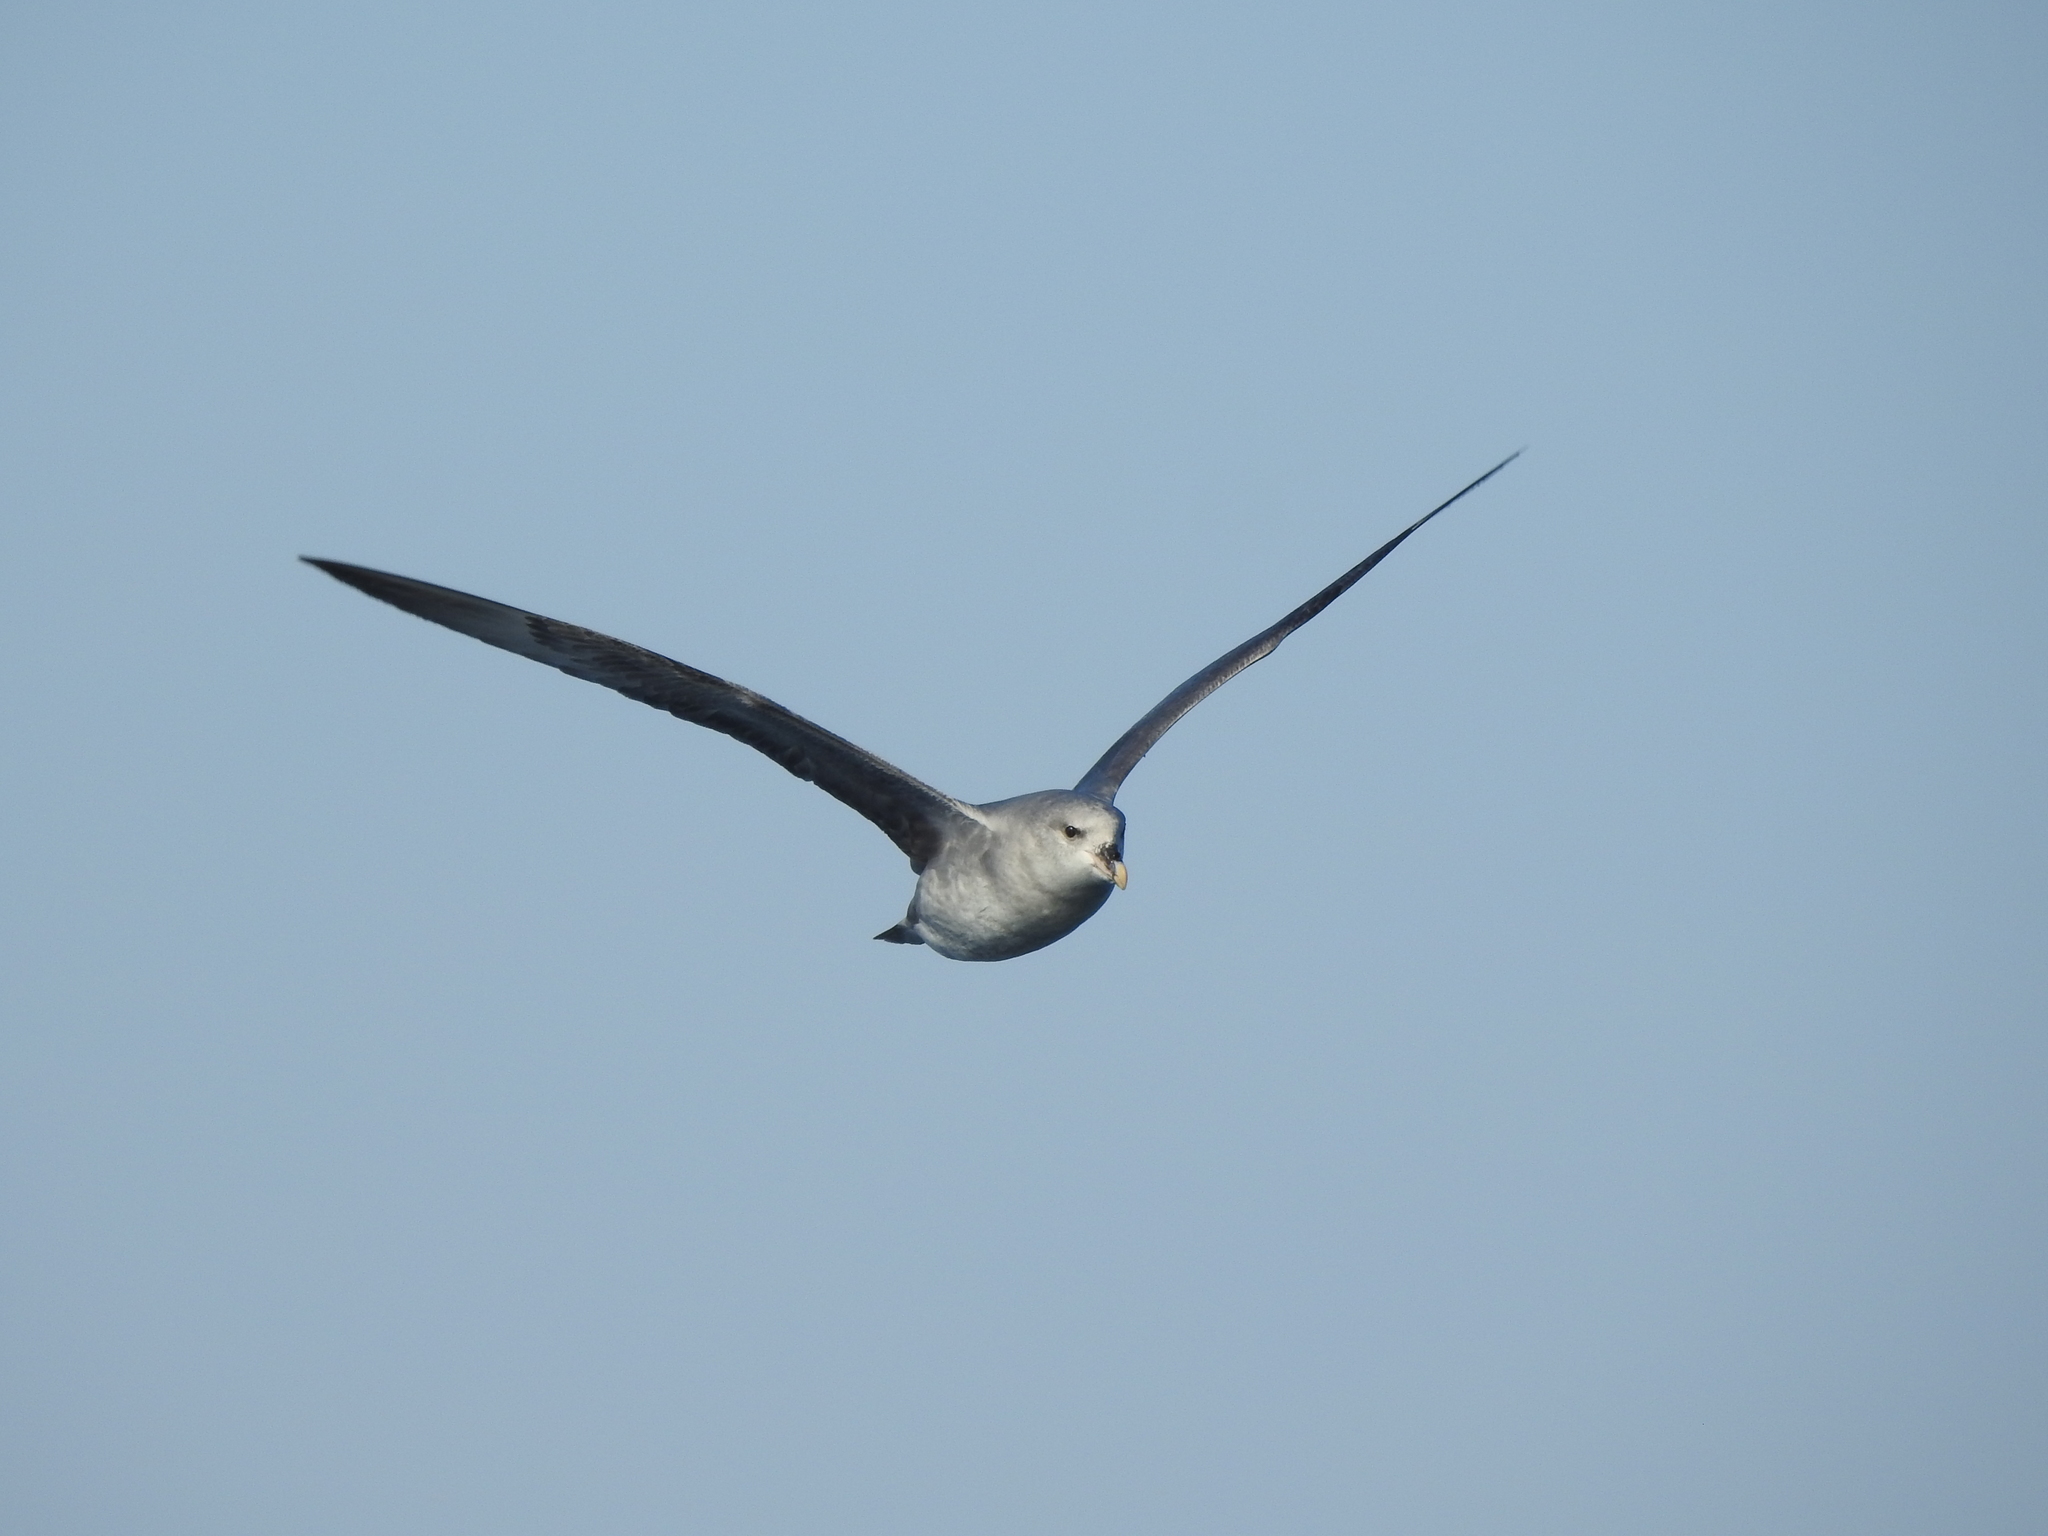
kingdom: Animalia
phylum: Chordata
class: Aves
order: Procellariiformes
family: Procellariidae
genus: Fulmarus
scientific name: Fulmarus glacialis
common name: Northern fulmar
